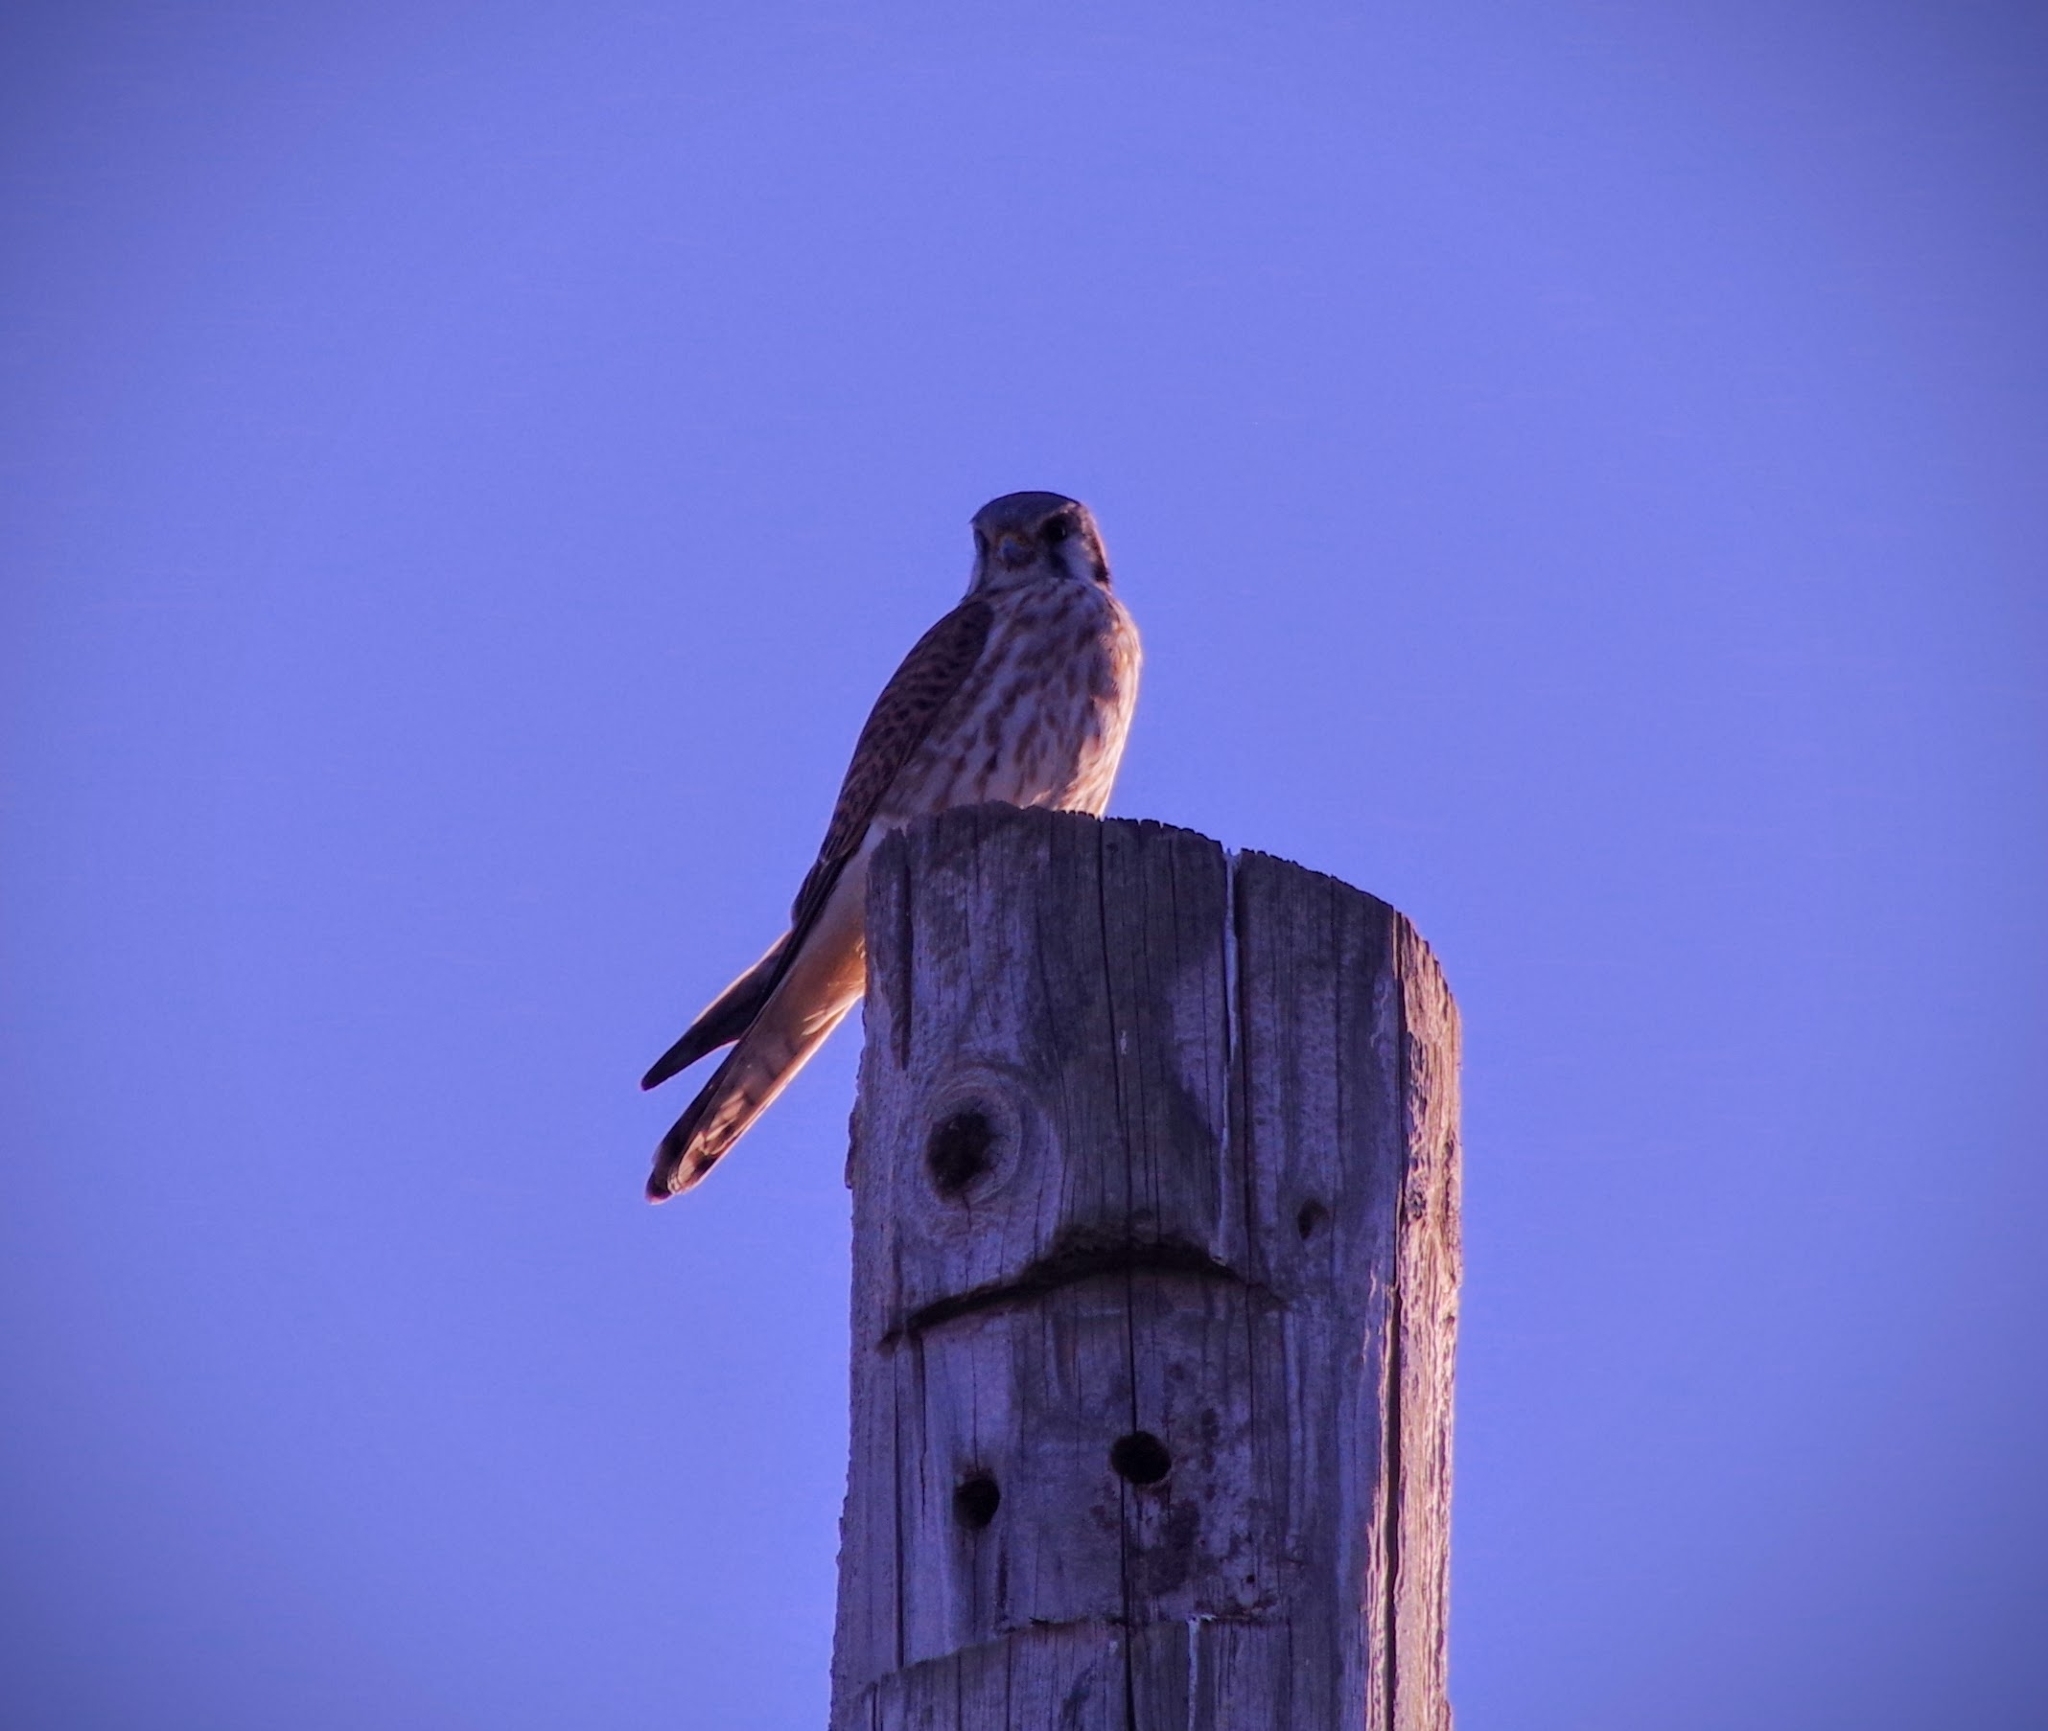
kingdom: Animalia
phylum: Chordata
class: Aves
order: Falconiformes
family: Falconidae
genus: Falco
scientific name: Falco sparverius
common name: American kestrel
